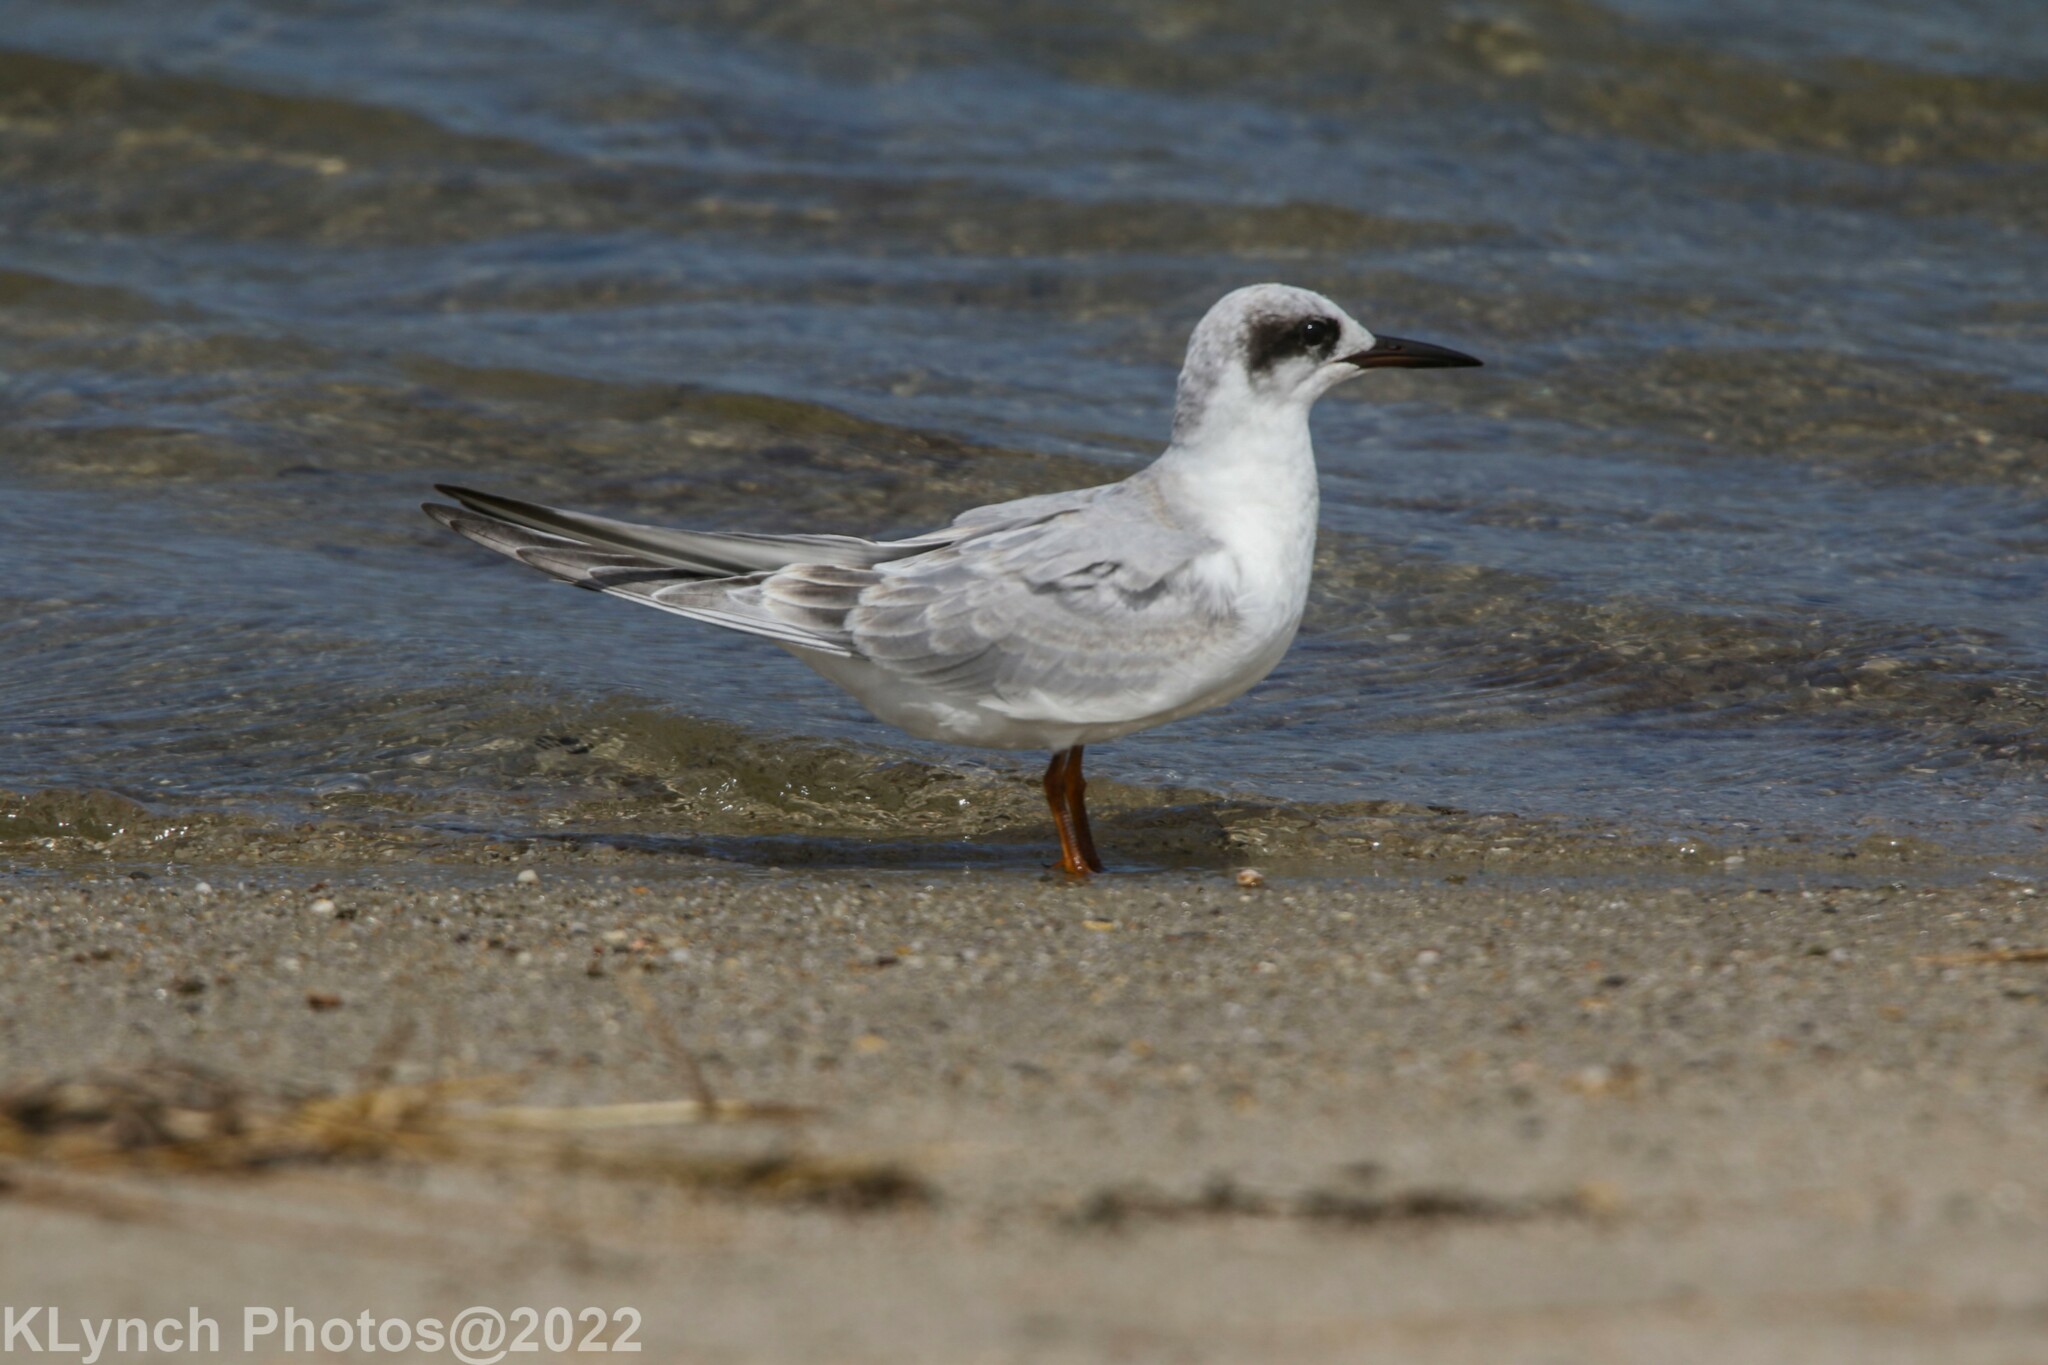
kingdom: Animalia
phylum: Chordata
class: Aves
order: Charadriiformes
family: Laridae
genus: Sterna
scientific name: Sterna forsteri
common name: Forster's tern
